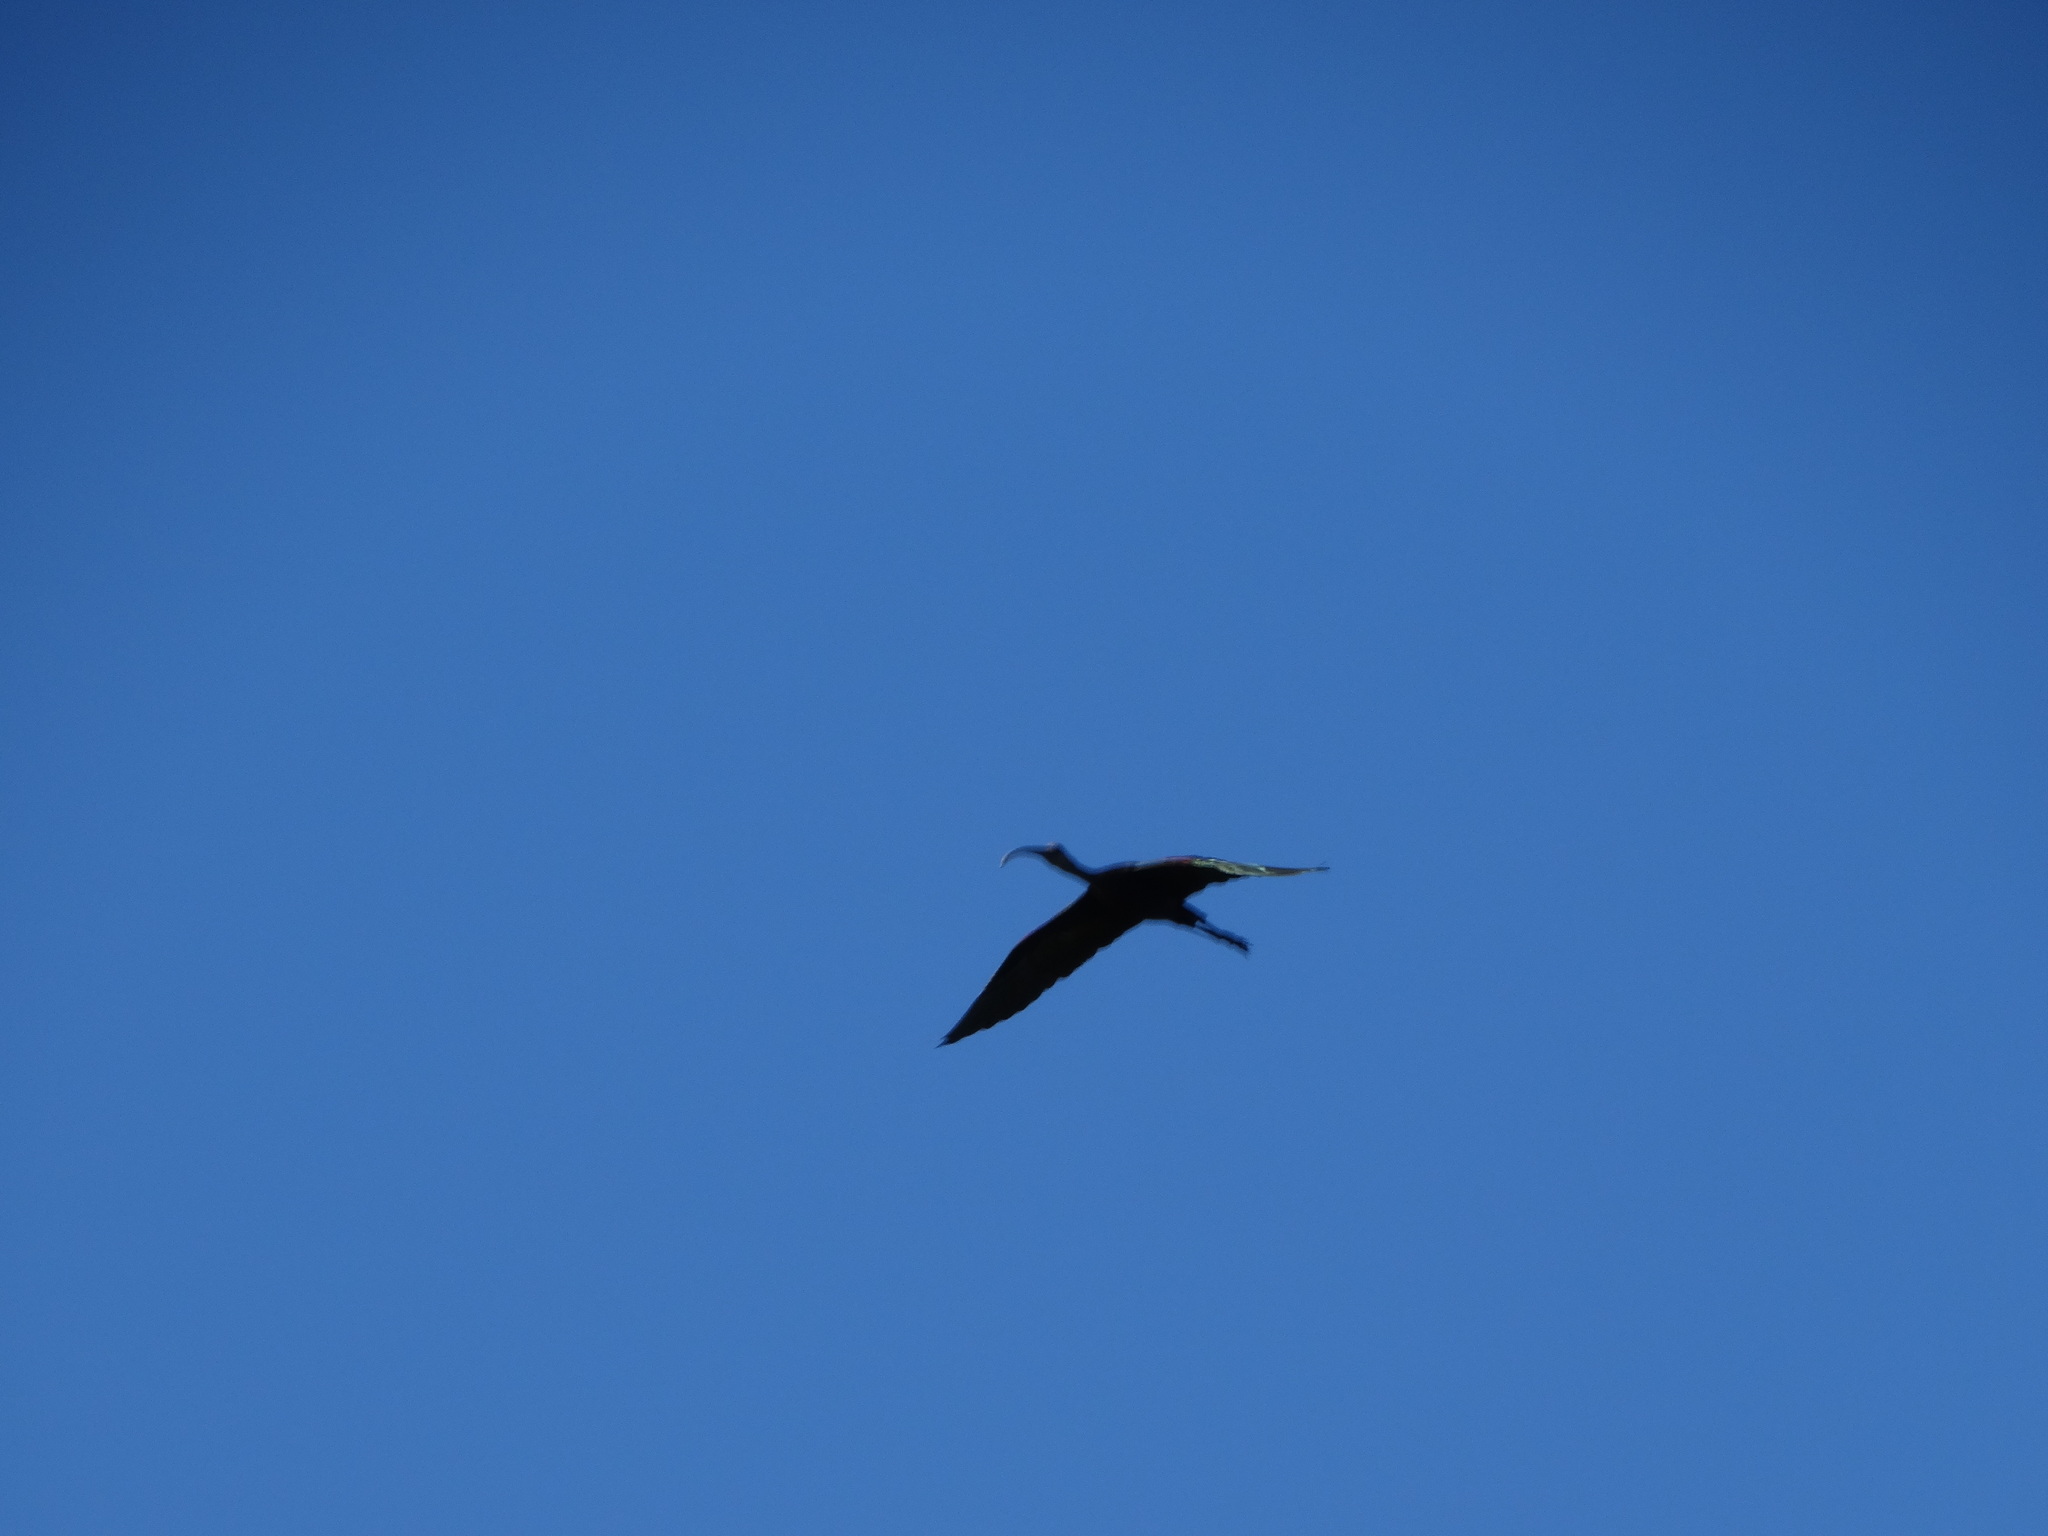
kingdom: Animalia
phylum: Chordata
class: Aves
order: Pelecaniformes
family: Threskiornithidae
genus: Plegadis
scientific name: Plegadis chihi
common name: White-faced ibis
